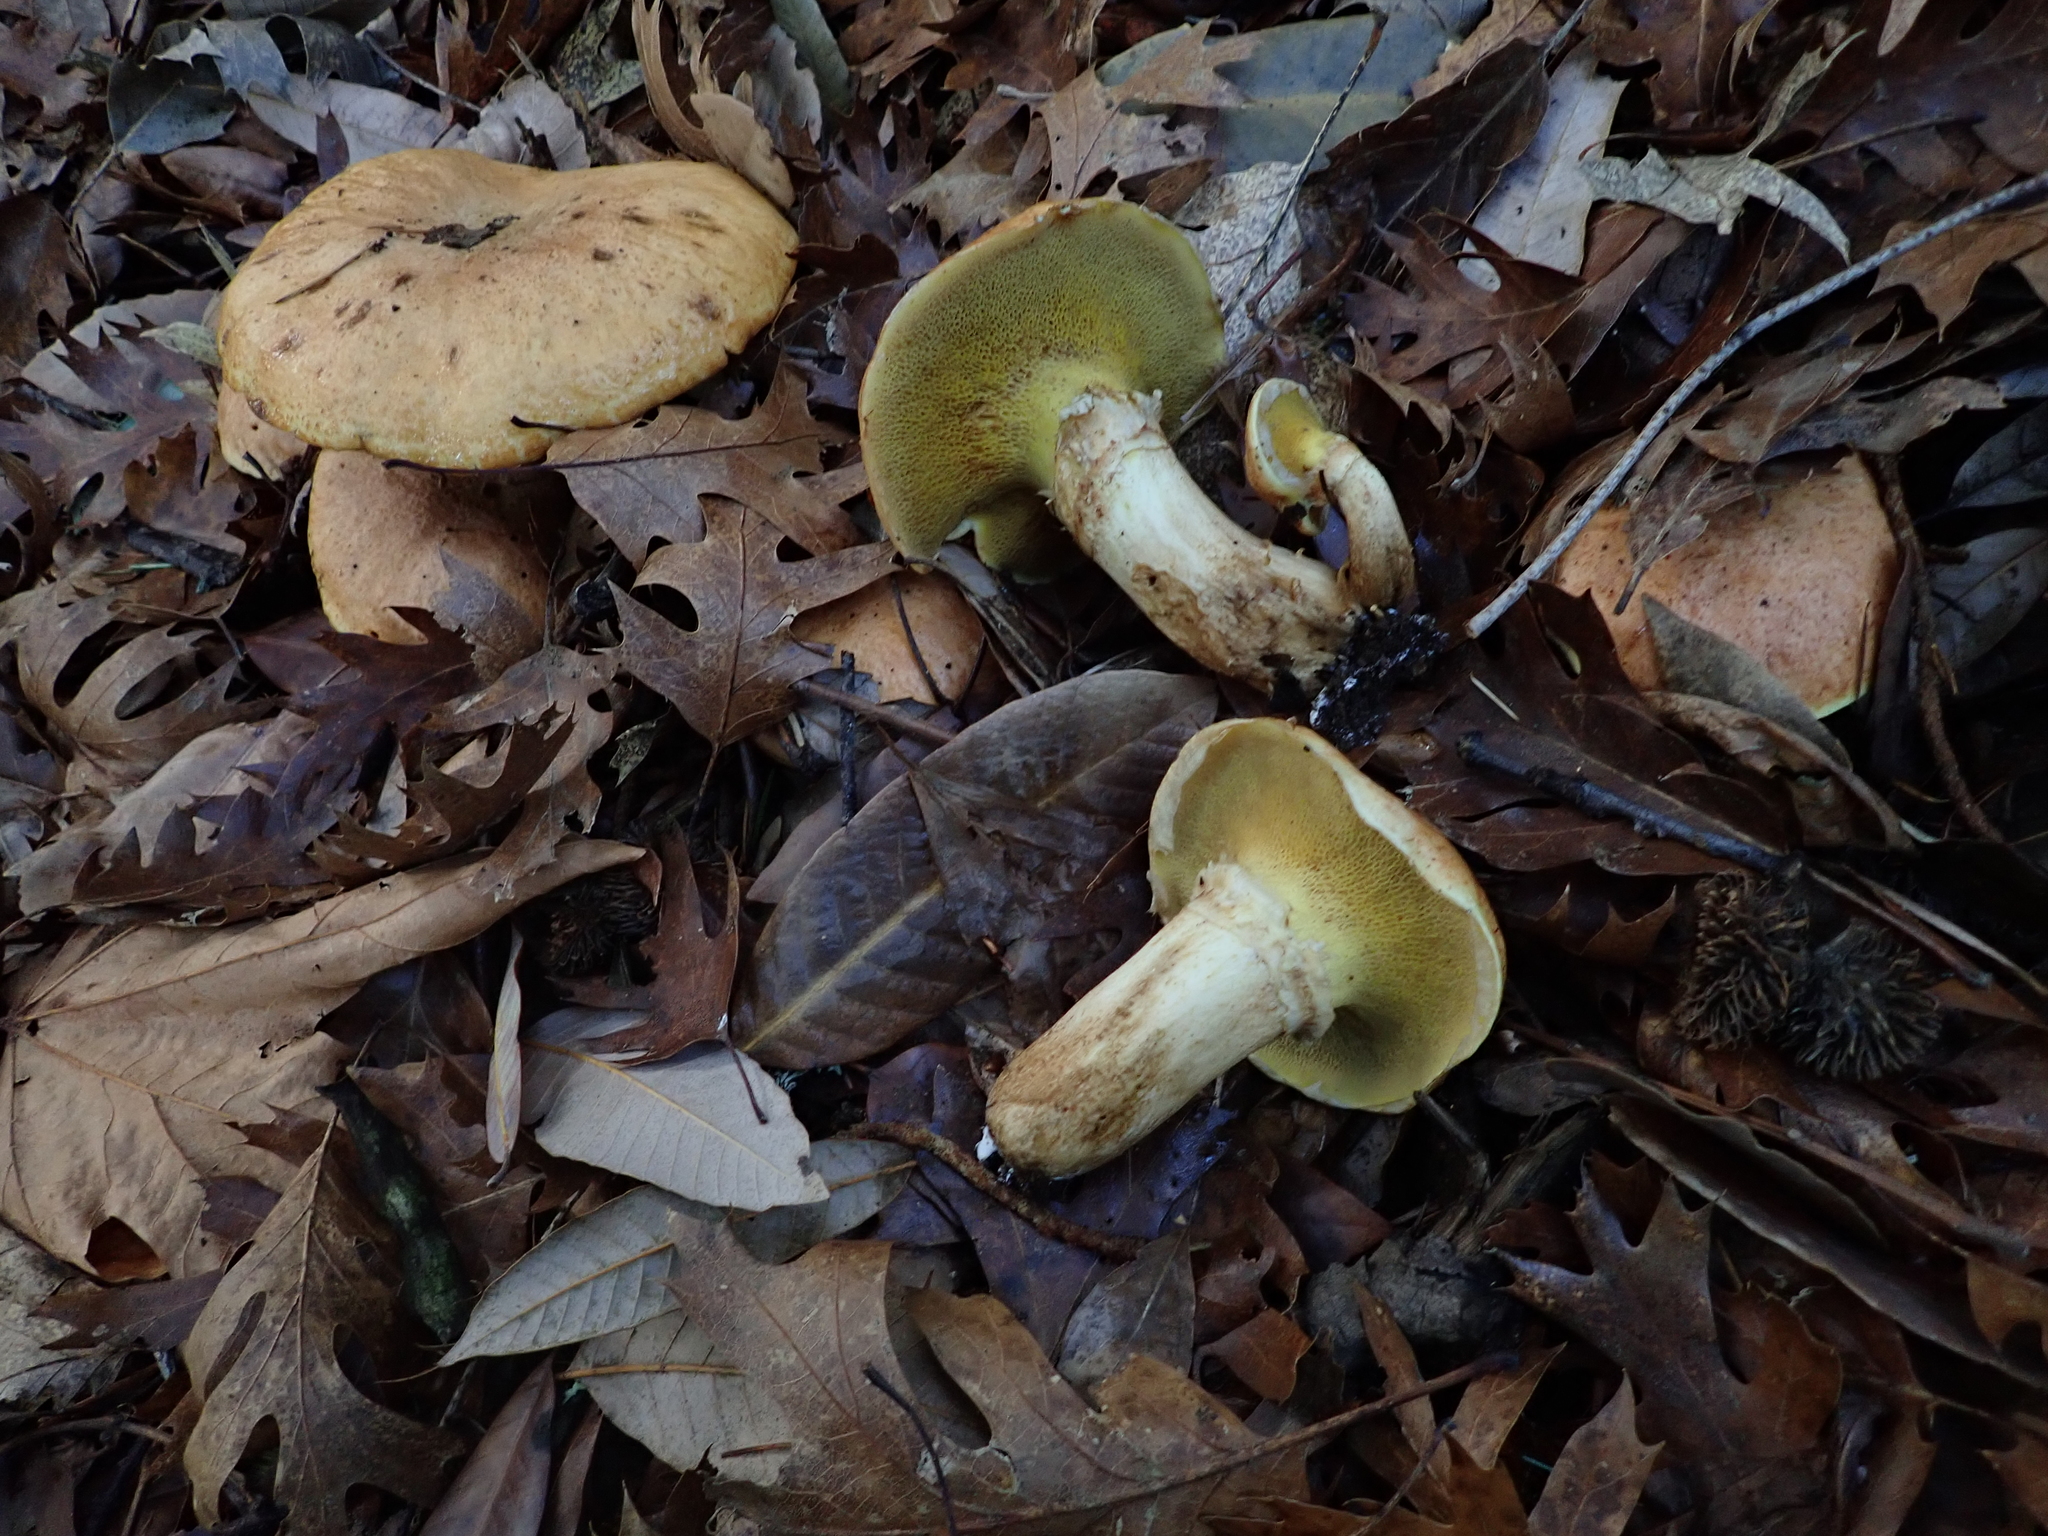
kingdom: Fungi
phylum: Basidiomycota
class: Agaricomycetes
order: Boletales
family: Suillaceae
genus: Suillus
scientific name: Suillus caerulescens
